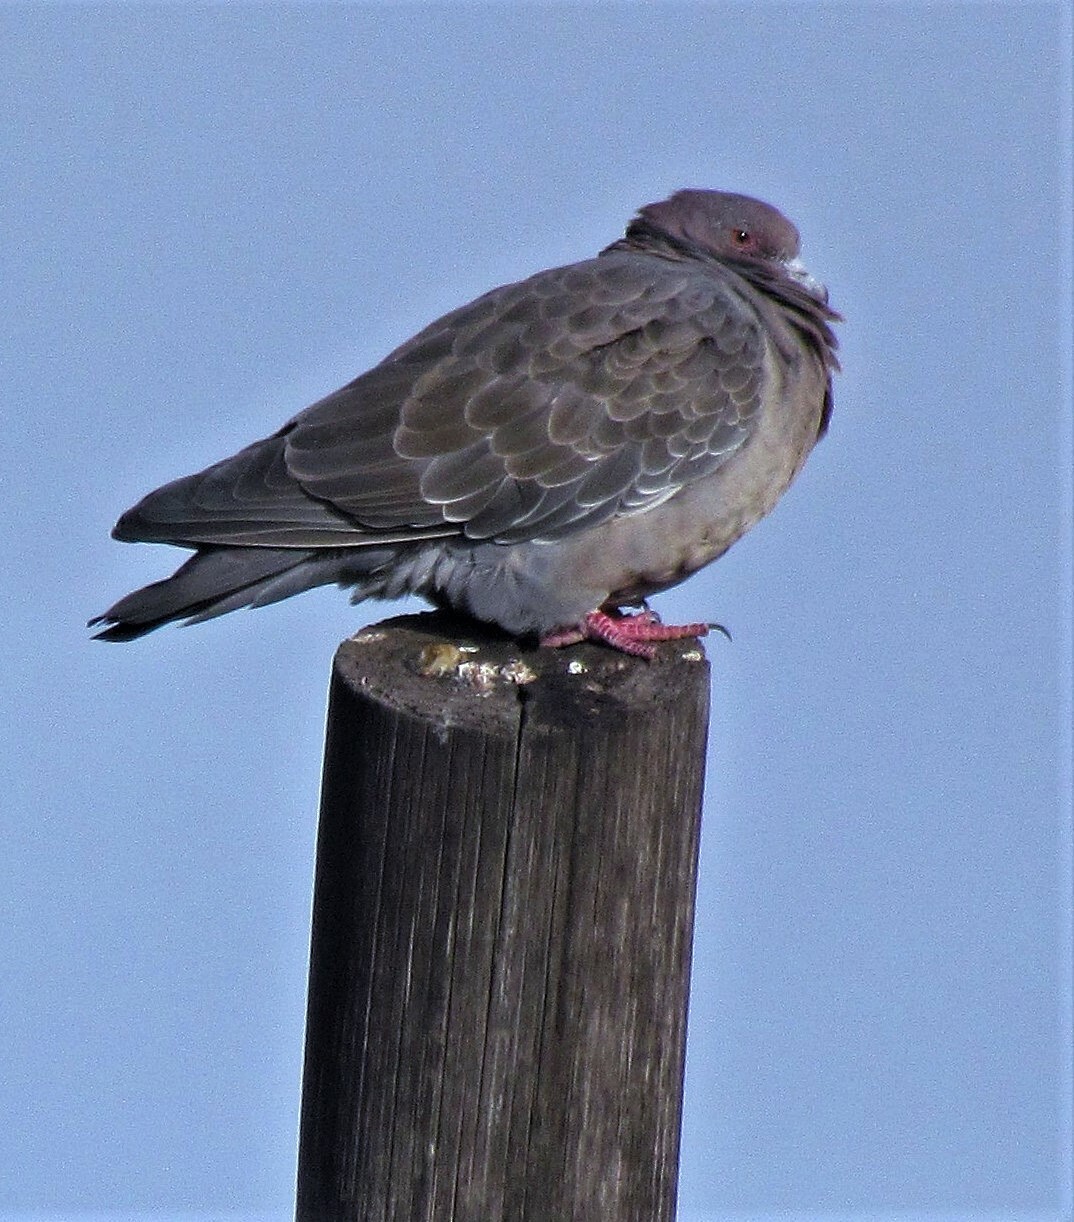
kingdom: Animalia
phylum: Chordata
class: Aves
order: Columbiformes
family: Columbidae
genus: Patagioenas
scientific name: Patagioenas picazuro
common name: Picazuro pigeon
